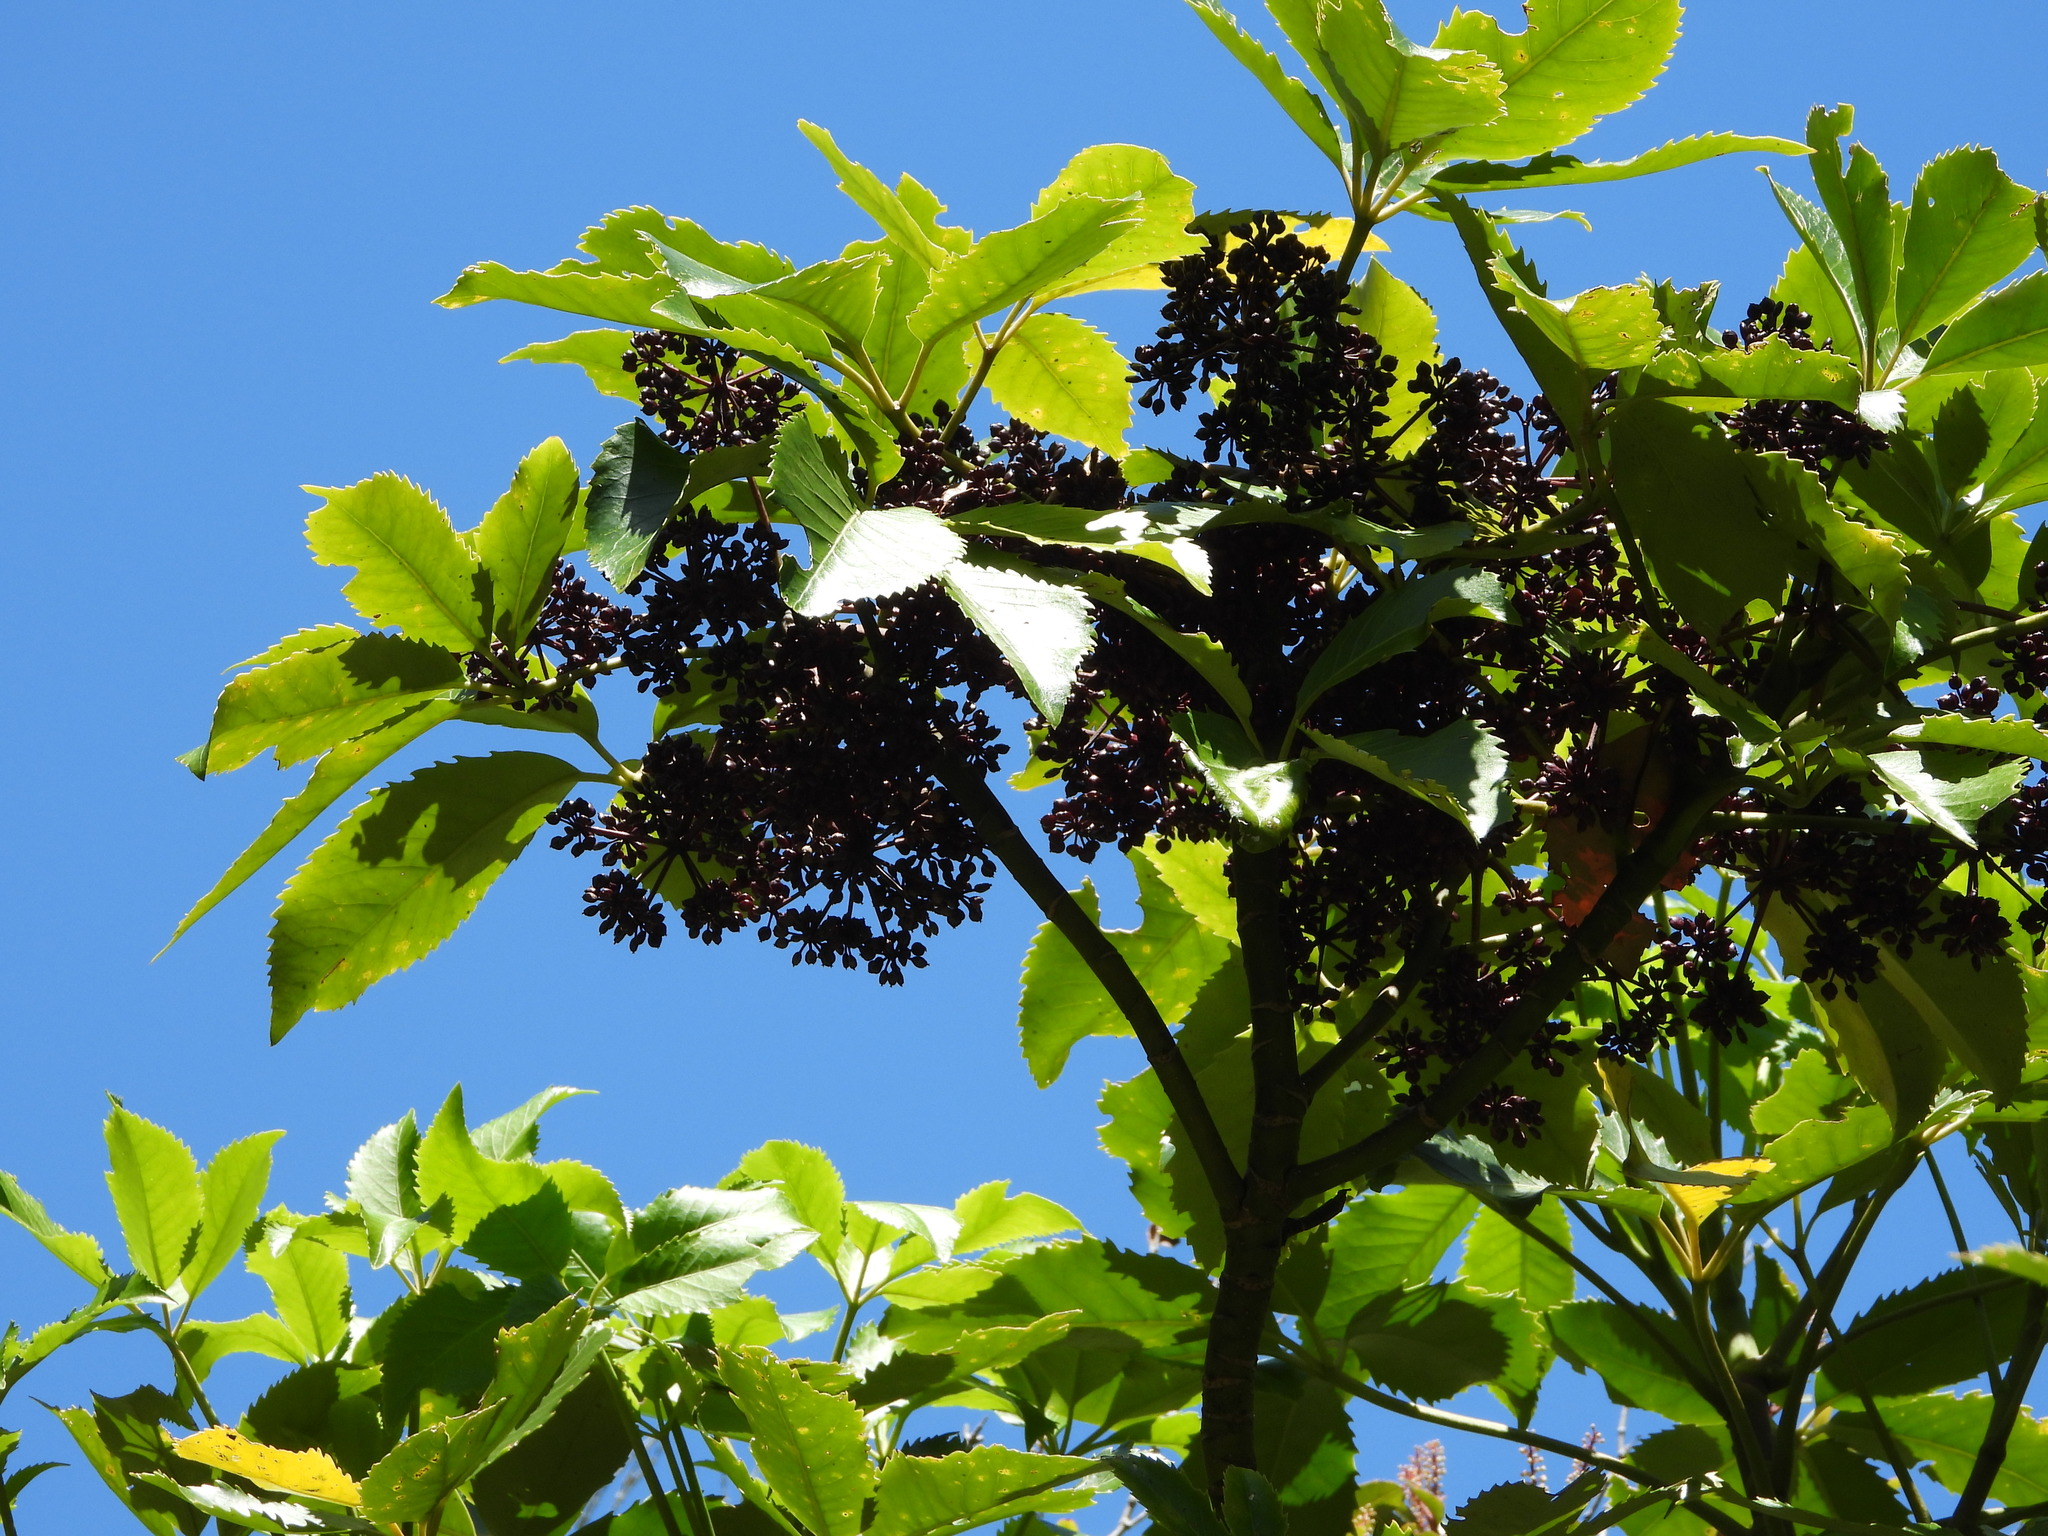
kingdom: Plantae
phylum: Tracheophyta
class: Magnoliopsida
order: Apiales
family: Araliaceae
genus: Neopanax
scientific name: Neopanax arboreus
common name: Five-fingers
